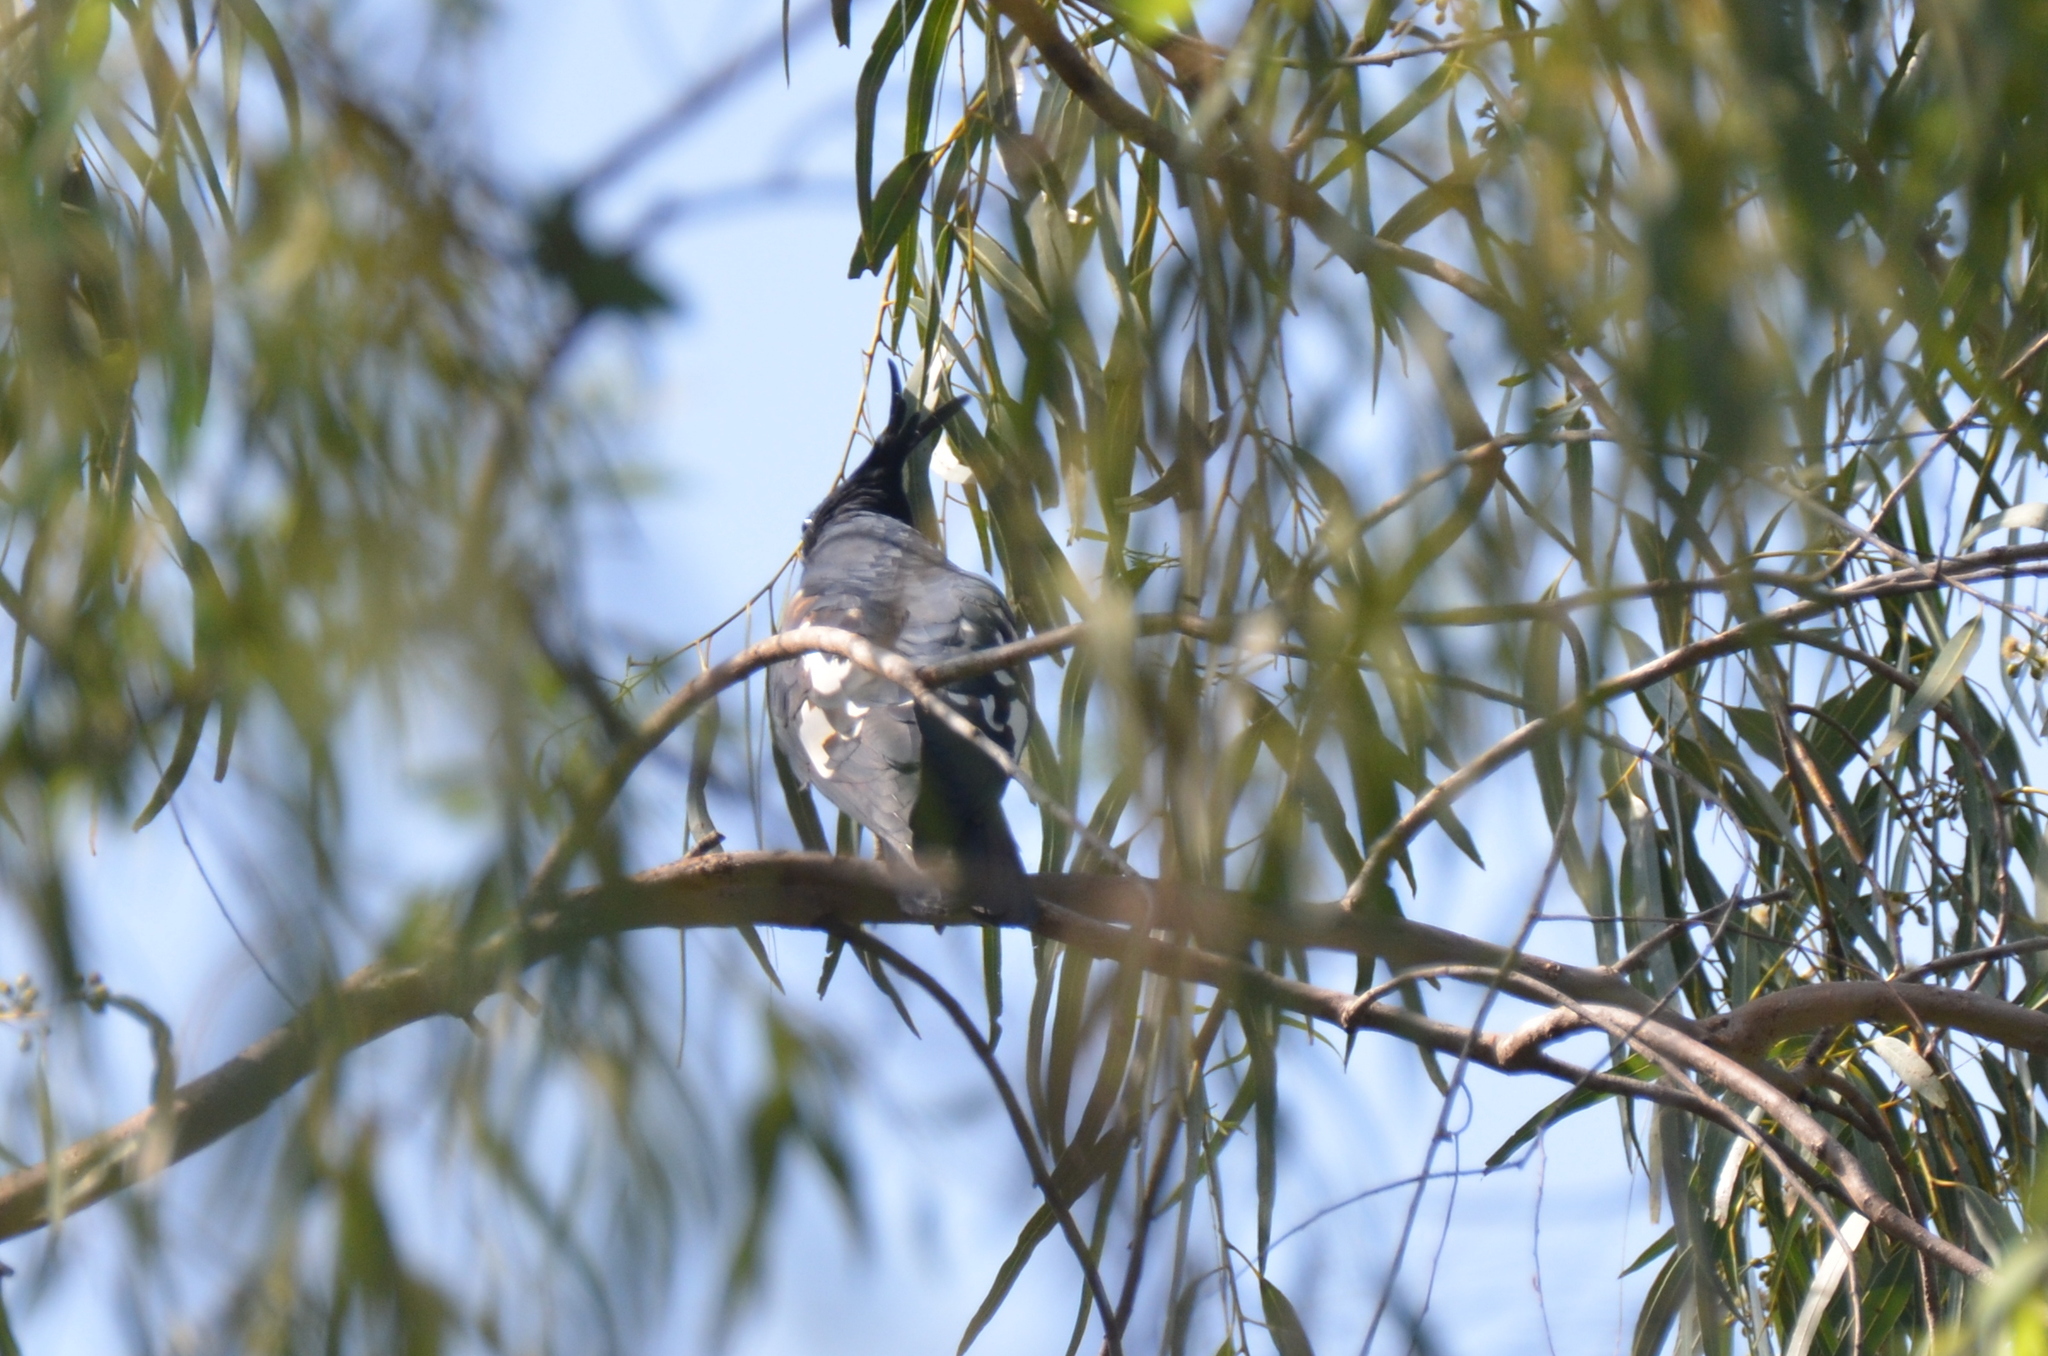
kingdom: Animalia
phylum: Chordata
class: Aves
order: Accipitriformes
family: Accipitridae
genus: Aviceda
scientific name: Aviceda leuphotes
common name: Black baza
